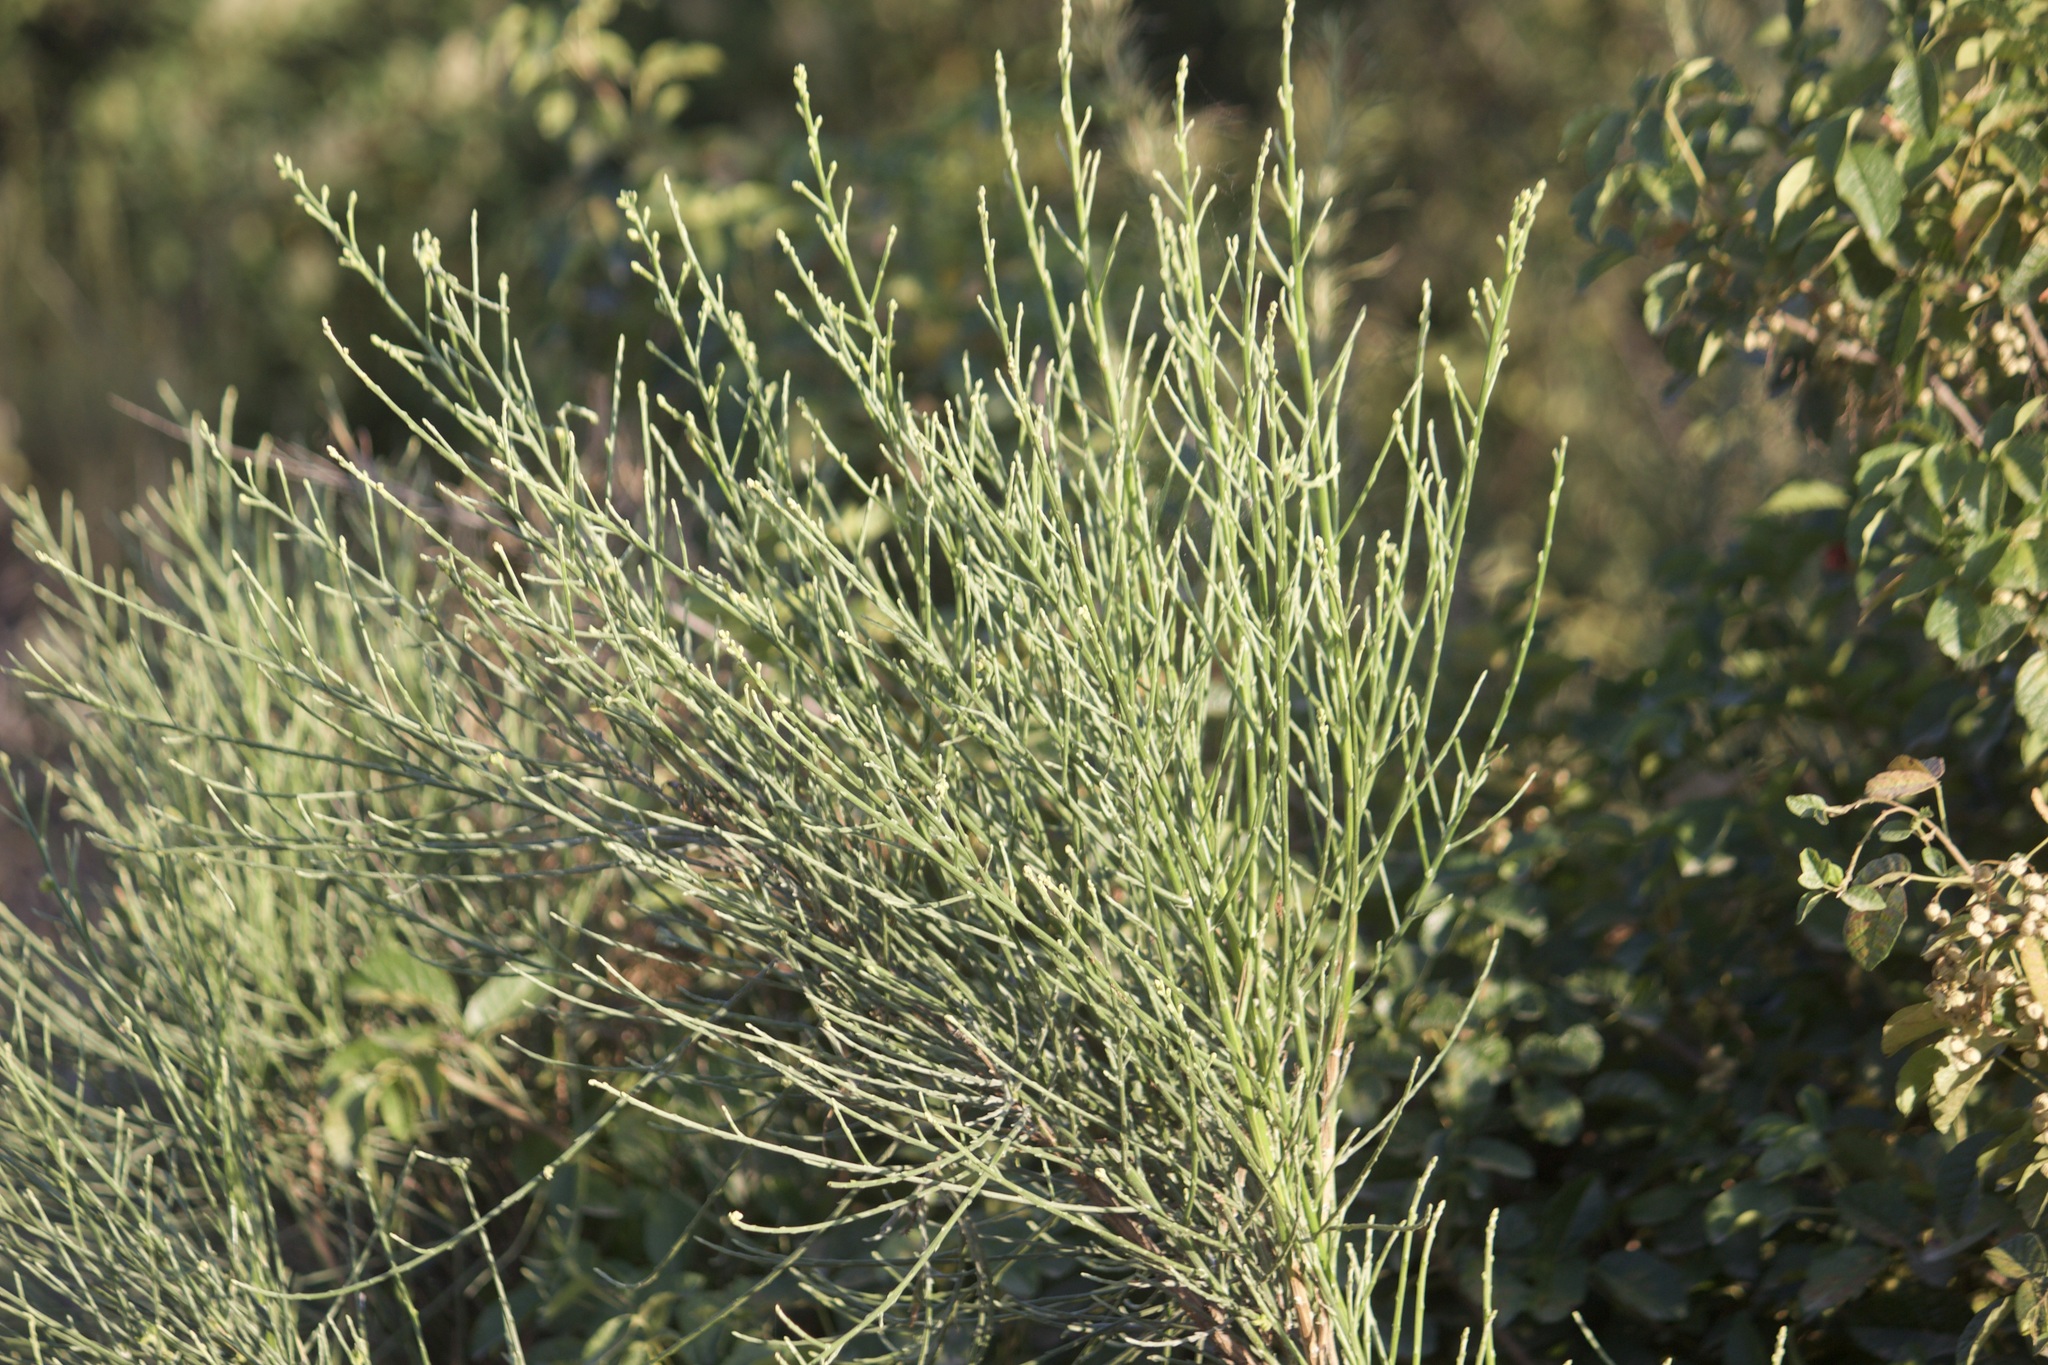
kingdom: Plantae
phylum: Tracheophyta
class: Magnoliopsida
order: Asterales
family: Asteraceae
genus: Lepidospartum
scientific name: Lepidospartum squamatum
